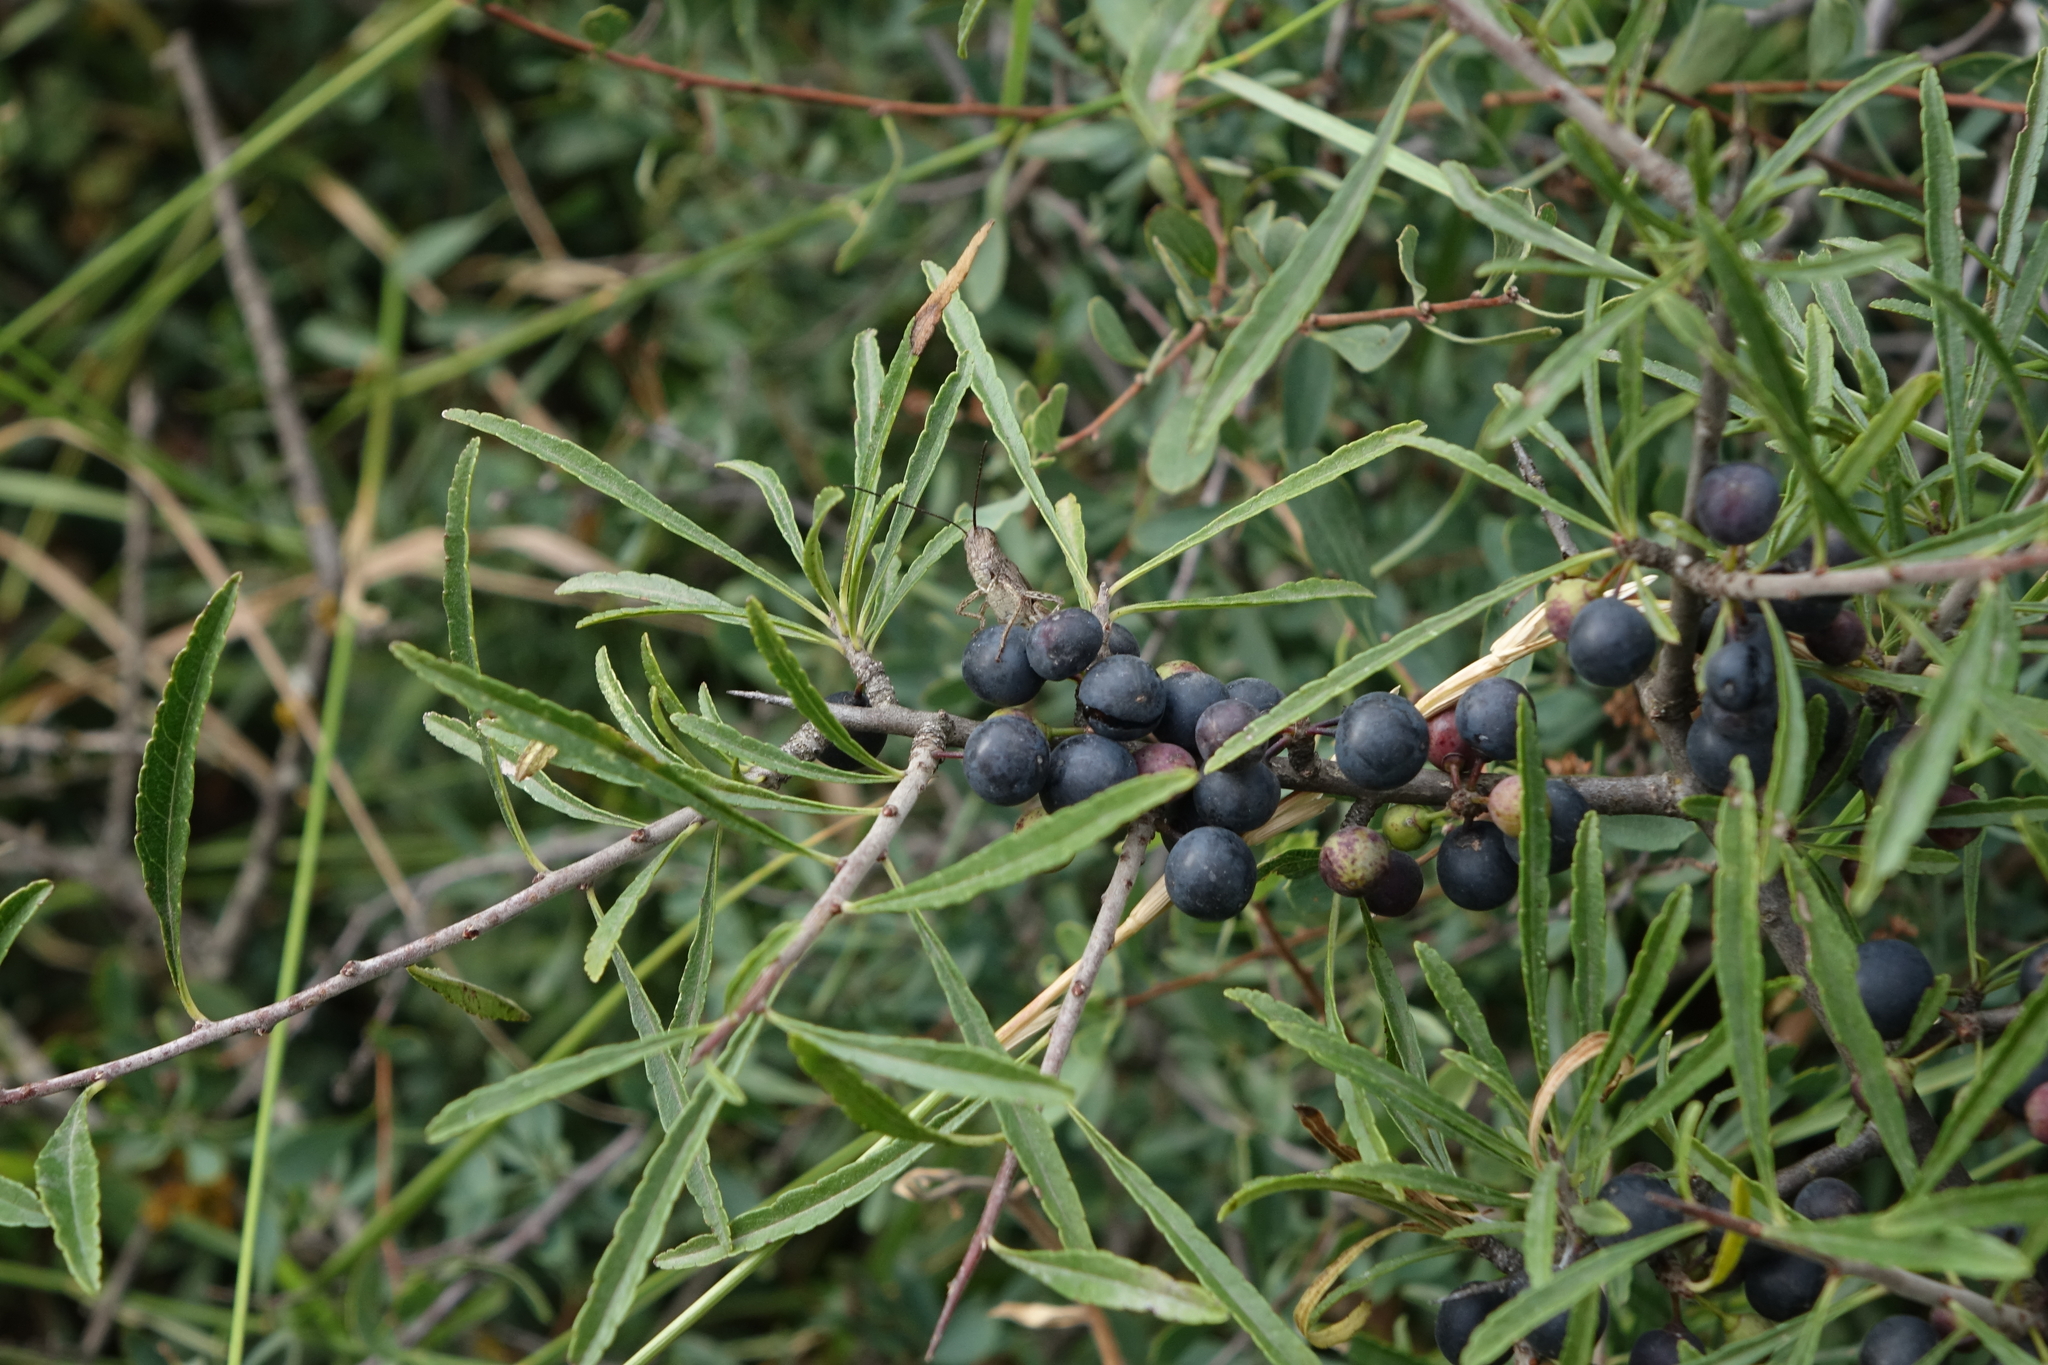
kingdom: Plantae
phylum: Tracheophyta
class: Magnoliopsida
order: Rosales
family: Rhamnaceae
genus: Rhamnus
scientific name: Rhamnus erythroxyloides
